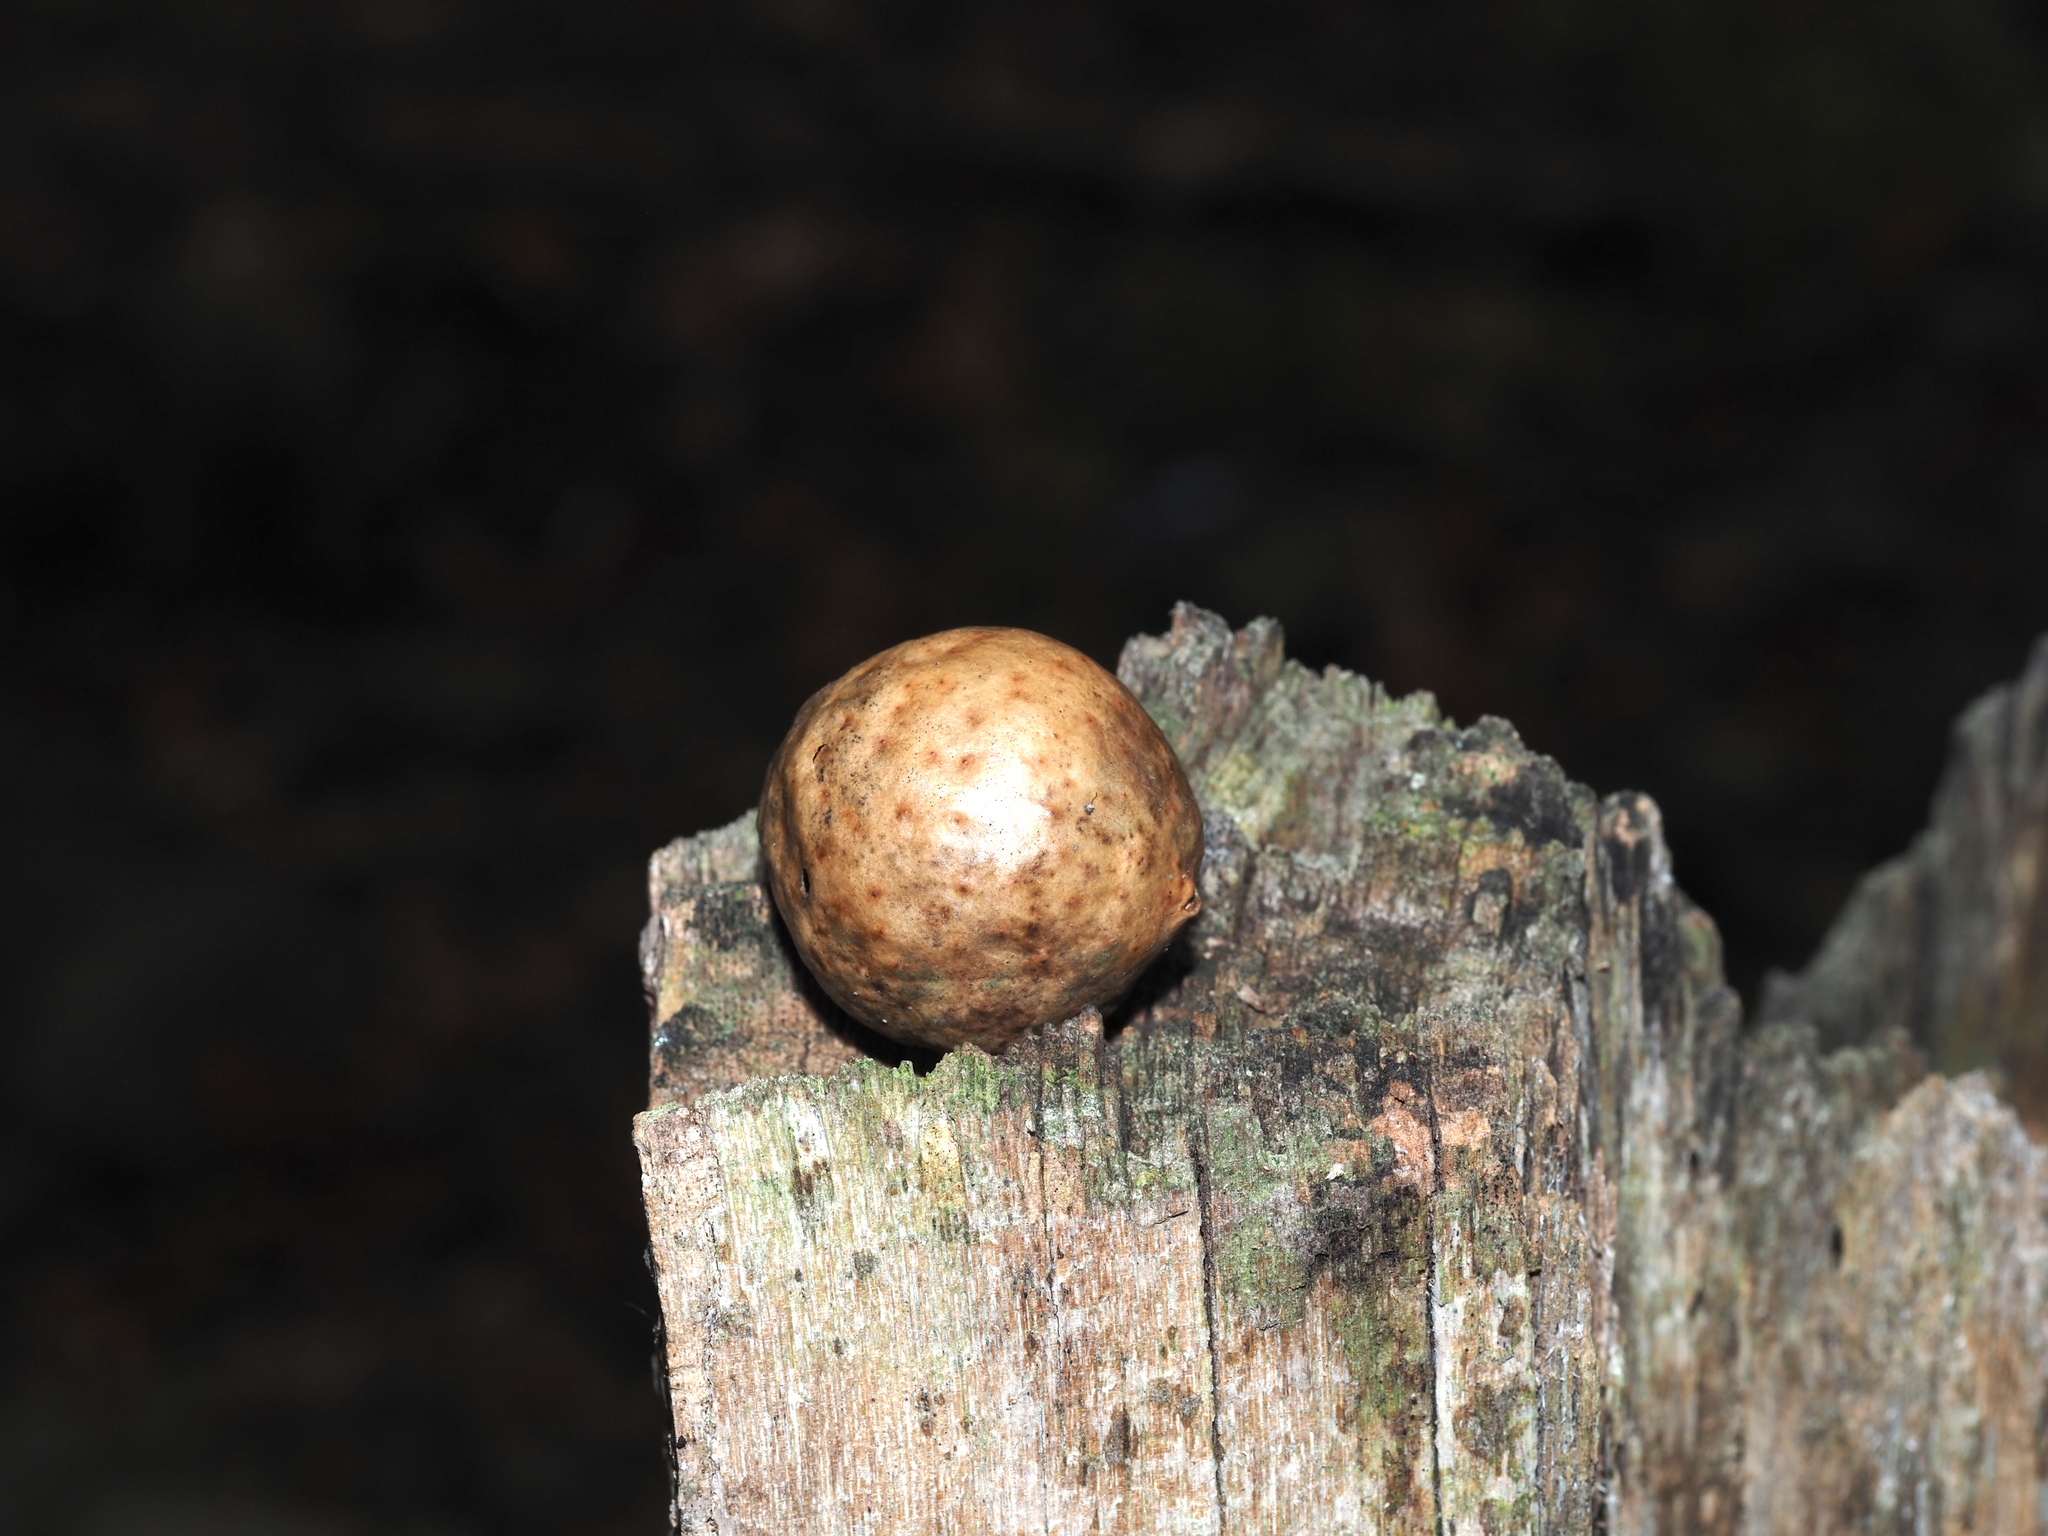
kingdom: Animalia
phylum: Arthropoda
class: Insecta
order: Hymenoptera
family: Cynipidae
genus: Amphibolips
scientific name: Amphibolips
